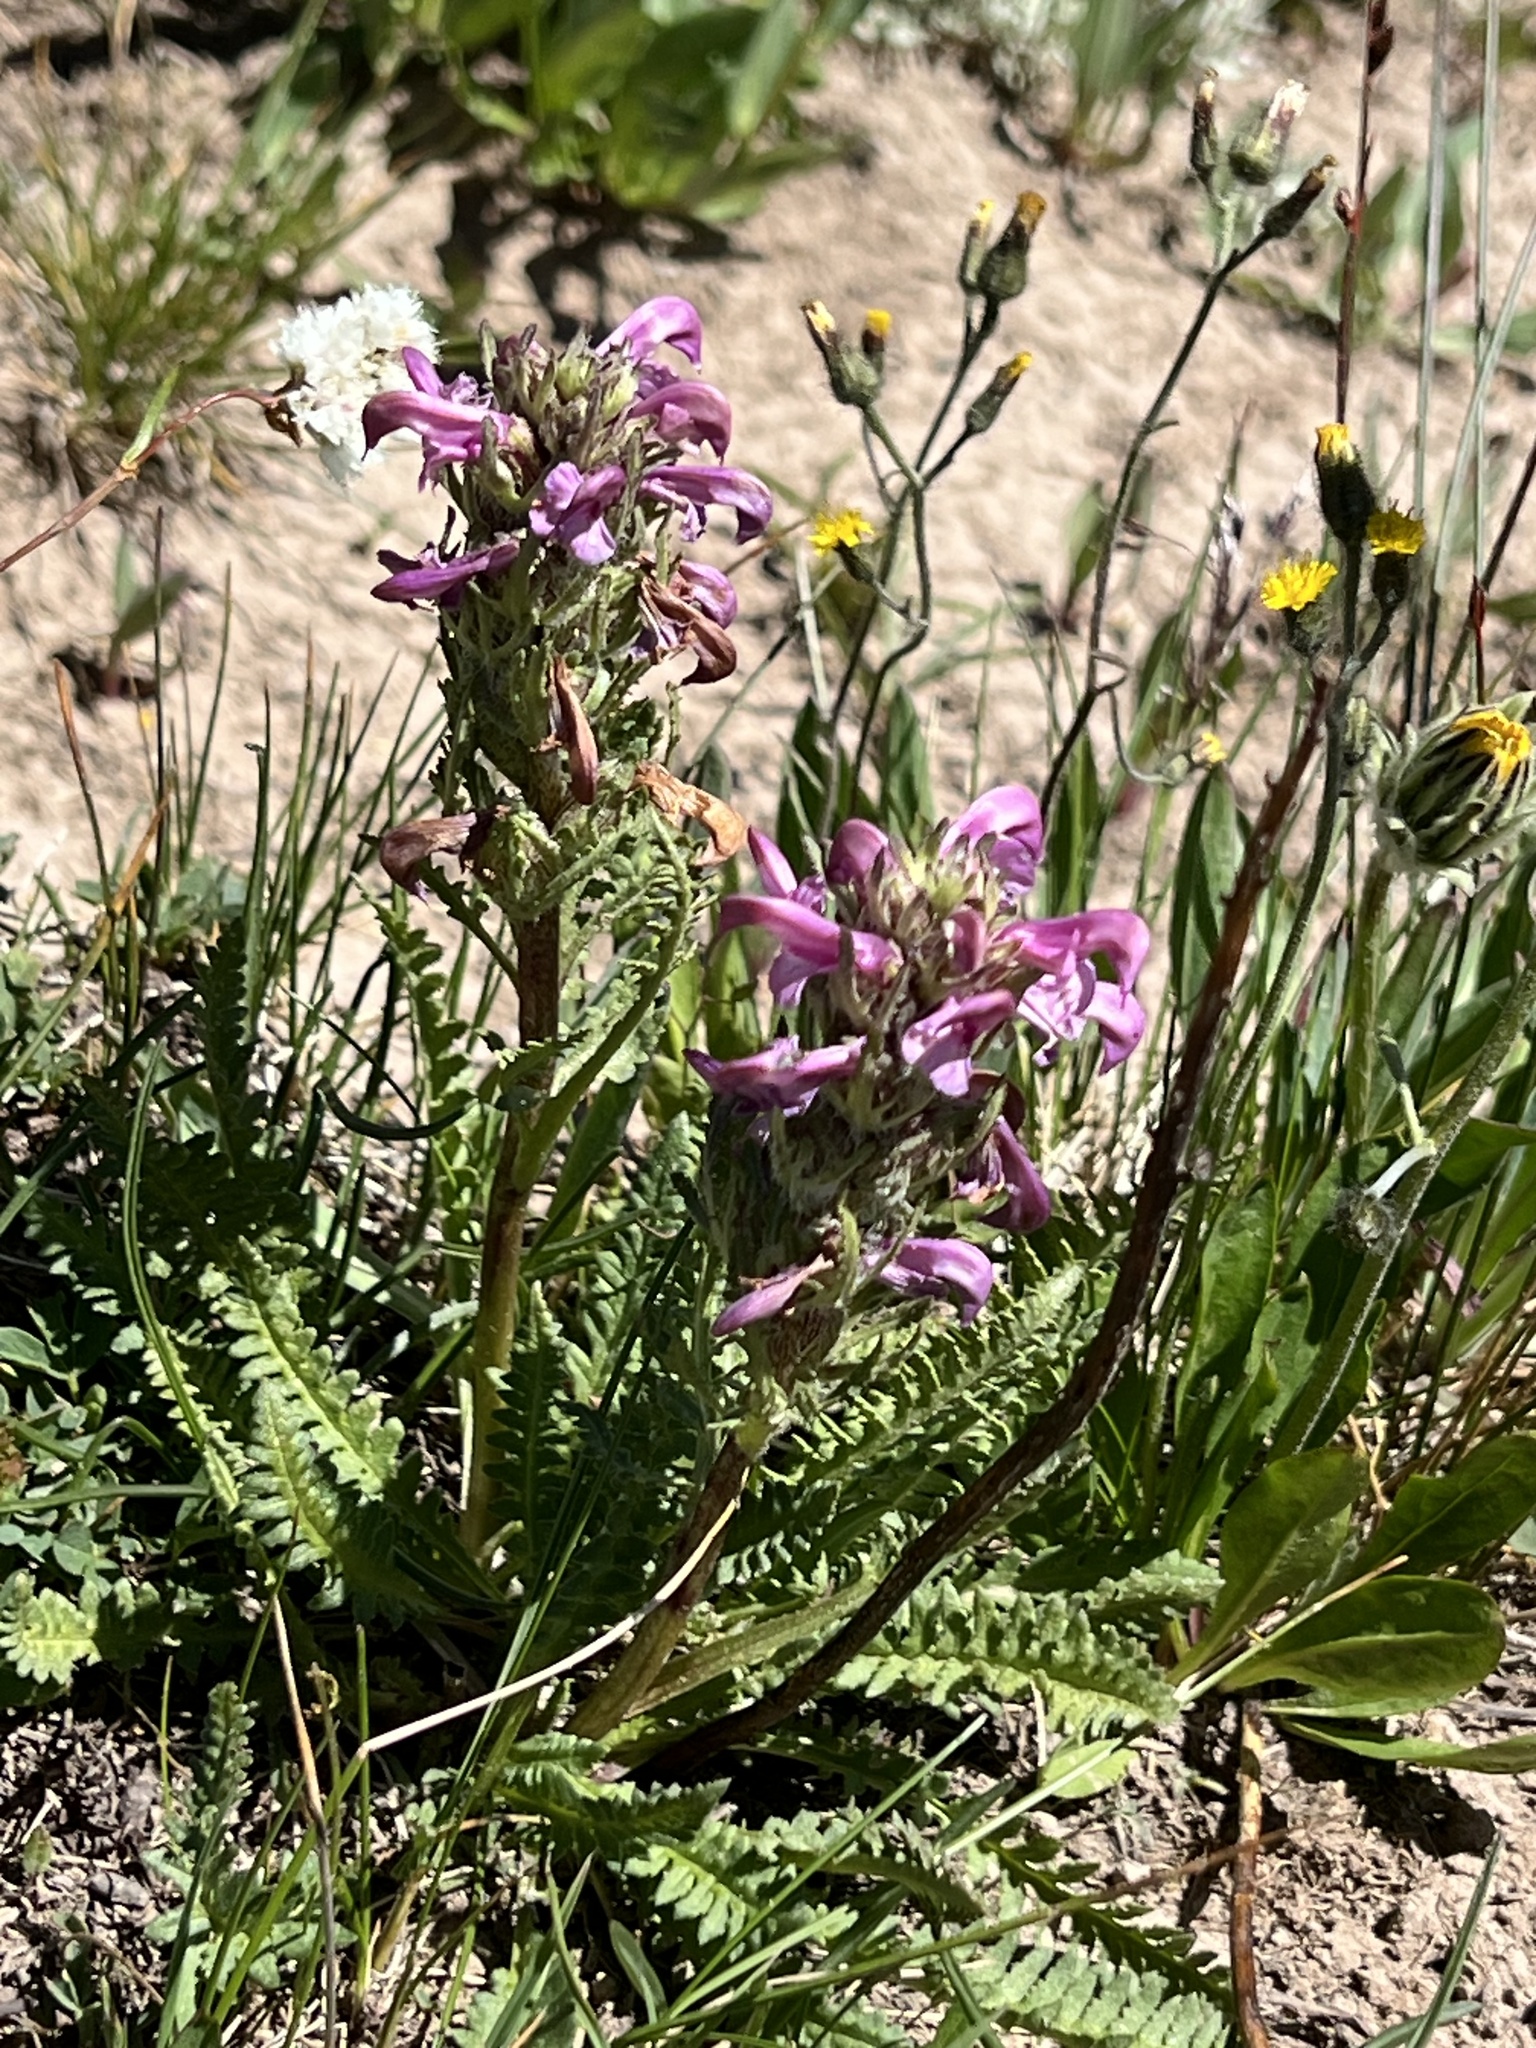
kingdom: Plantae
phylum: Tracheophyta
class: Magnoliopsida
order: Lamiales
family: Orobanchaceae
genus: Pedicularis
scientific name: Pedicularis parryi
